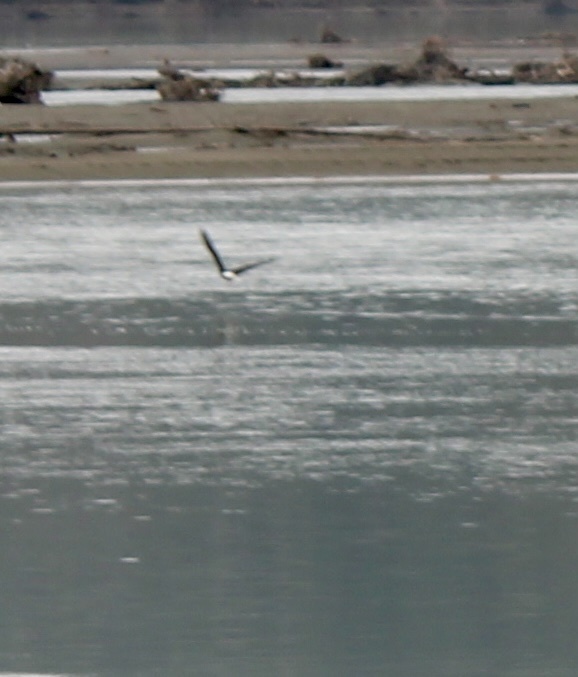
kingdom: Animalia
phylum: Chordata
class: Aves
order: Accipitriformes
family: Accipitridae
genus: Haliaeetus
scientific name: Haliaeetus leucocephalus
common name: Bald eagle
